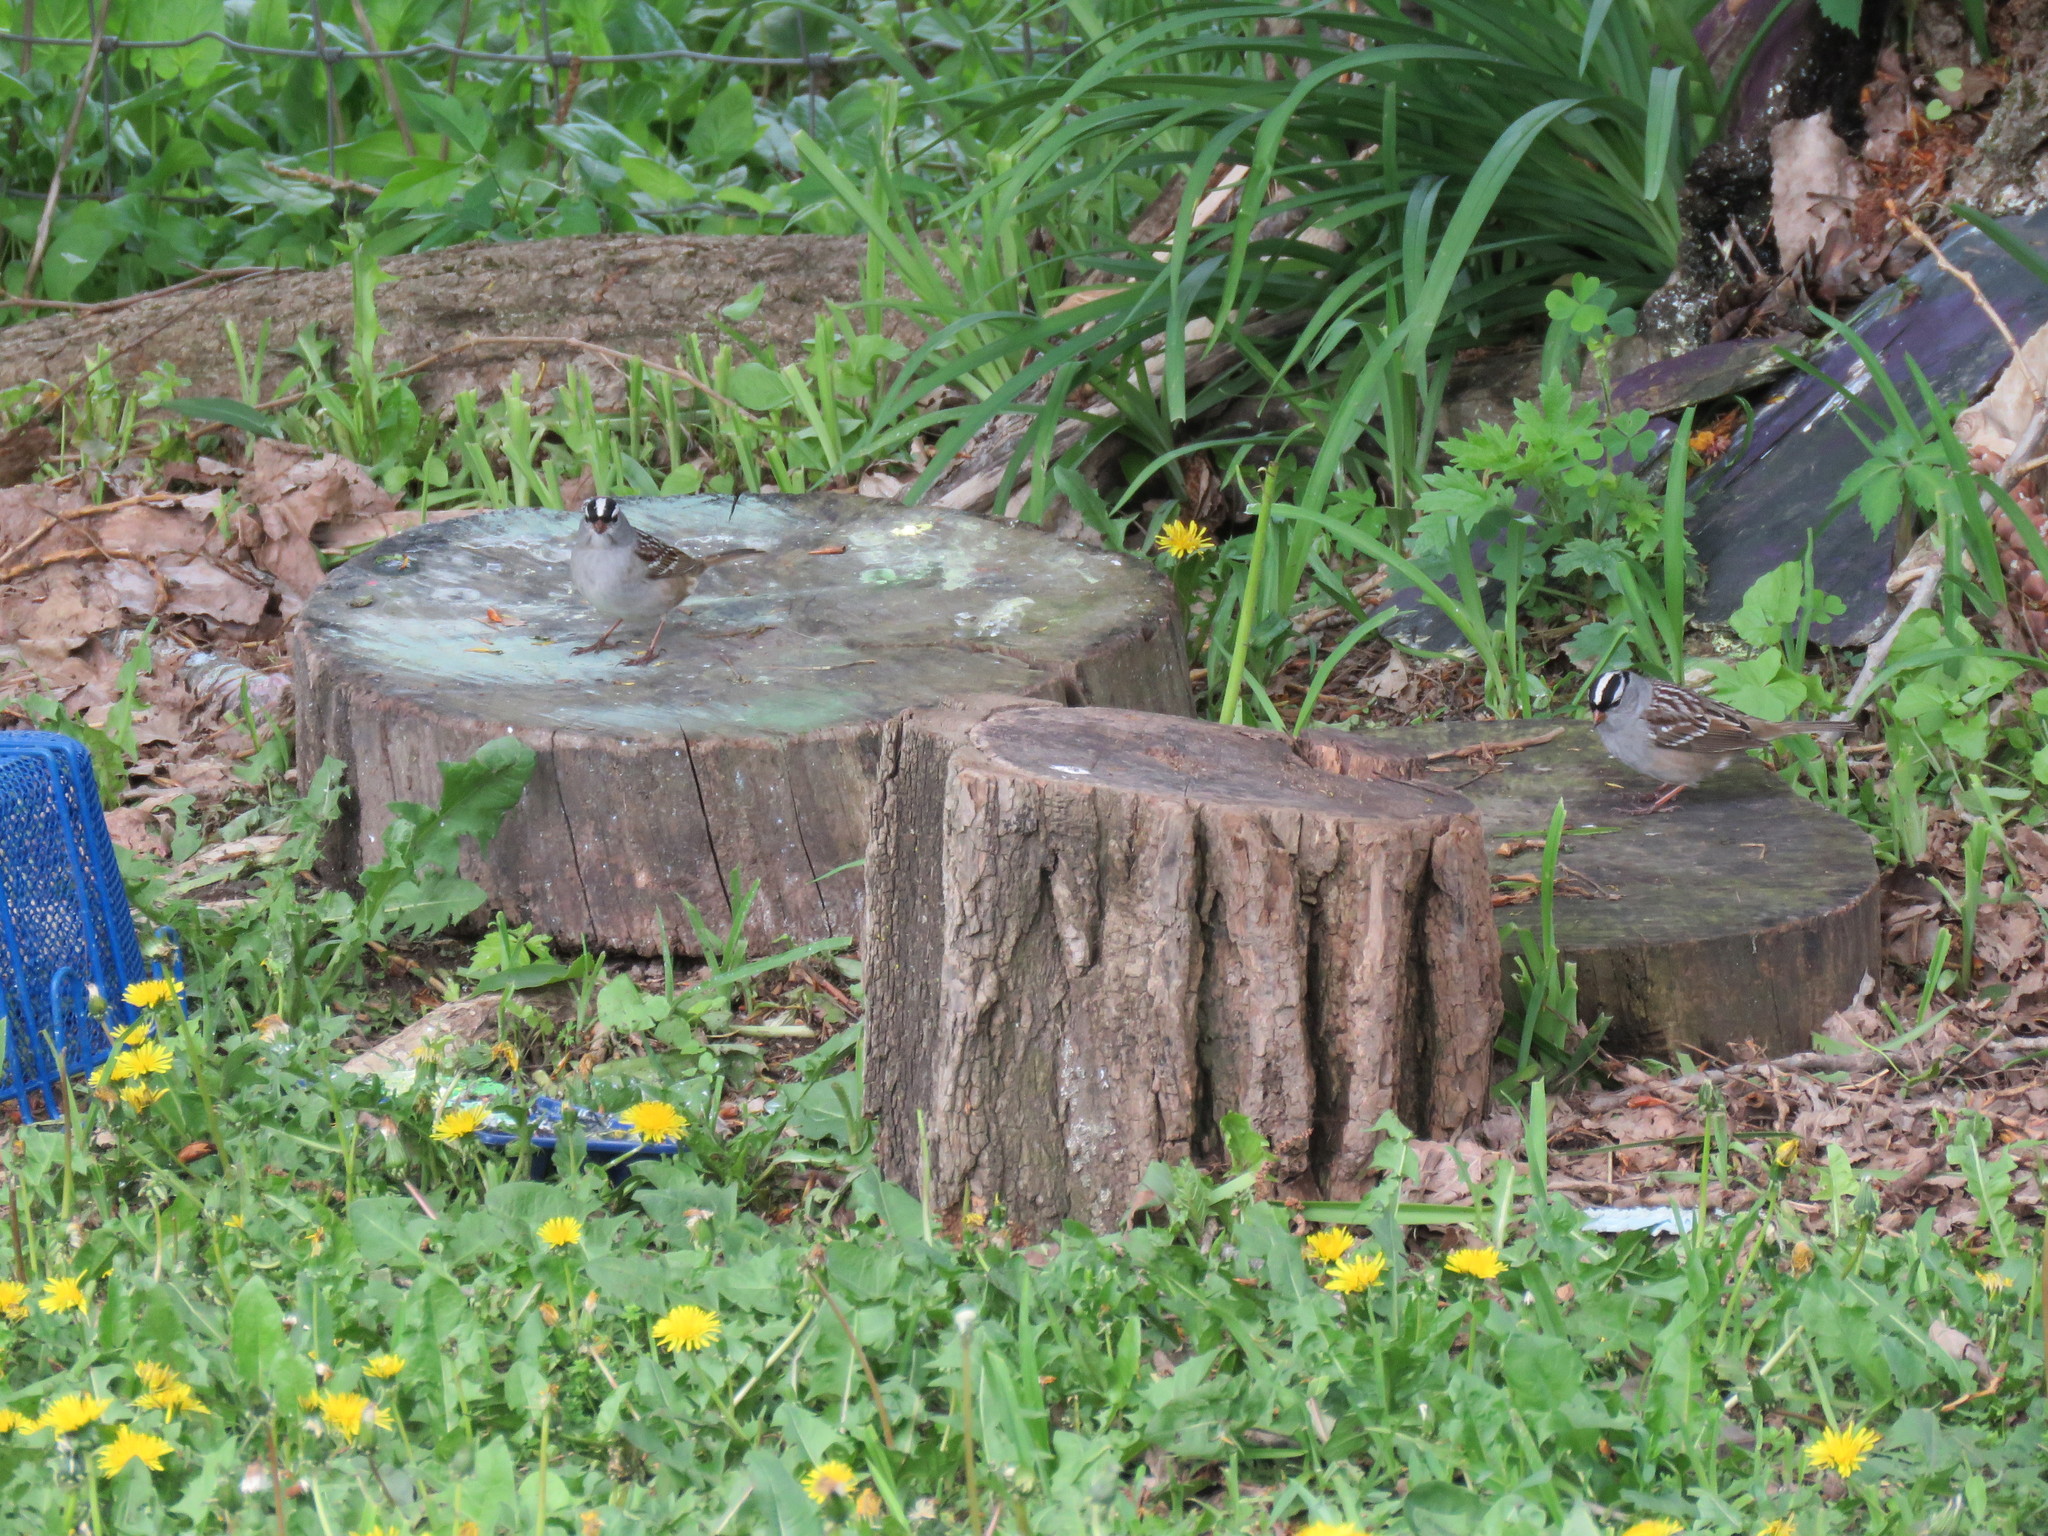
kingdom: Animalia
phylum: Chordata
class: Aves
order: Passeriformes
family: Passerellidae
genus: Zonotrichia
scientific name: Zonotrichia leucophrys
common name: White-crowned sparrow
